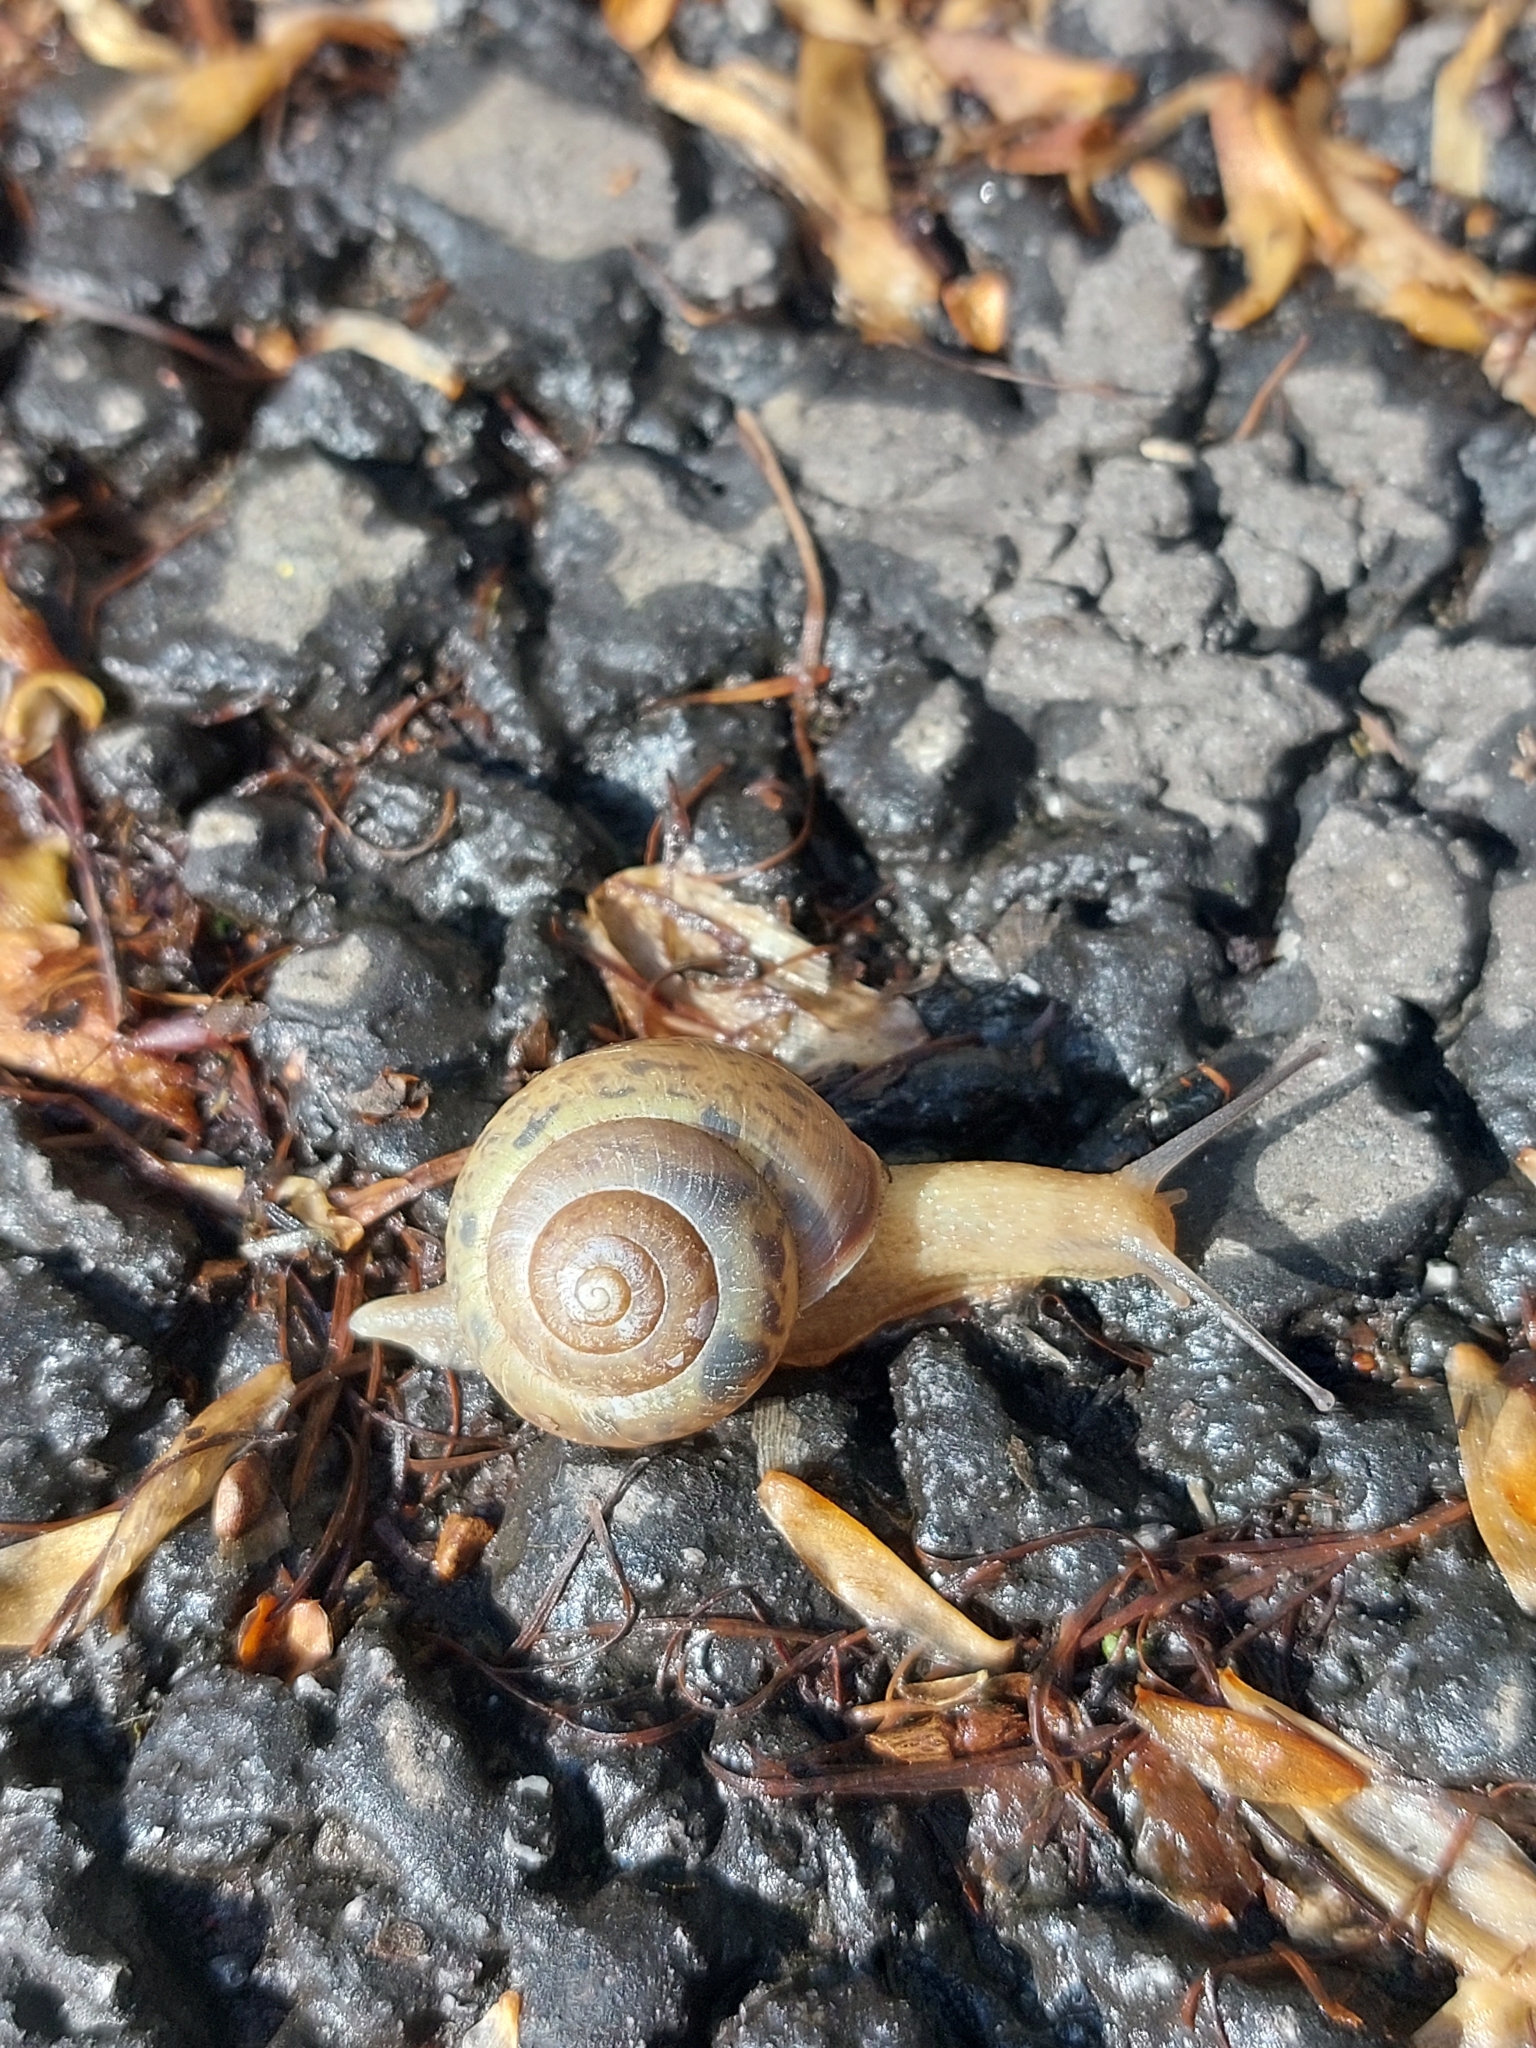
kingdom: Animalia
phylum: Mollusca
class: Gastropoda
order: Stylommatophora
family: Camaenidae
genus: Fruticicola
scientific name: Fruticicola fruticum
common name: Bush snail
